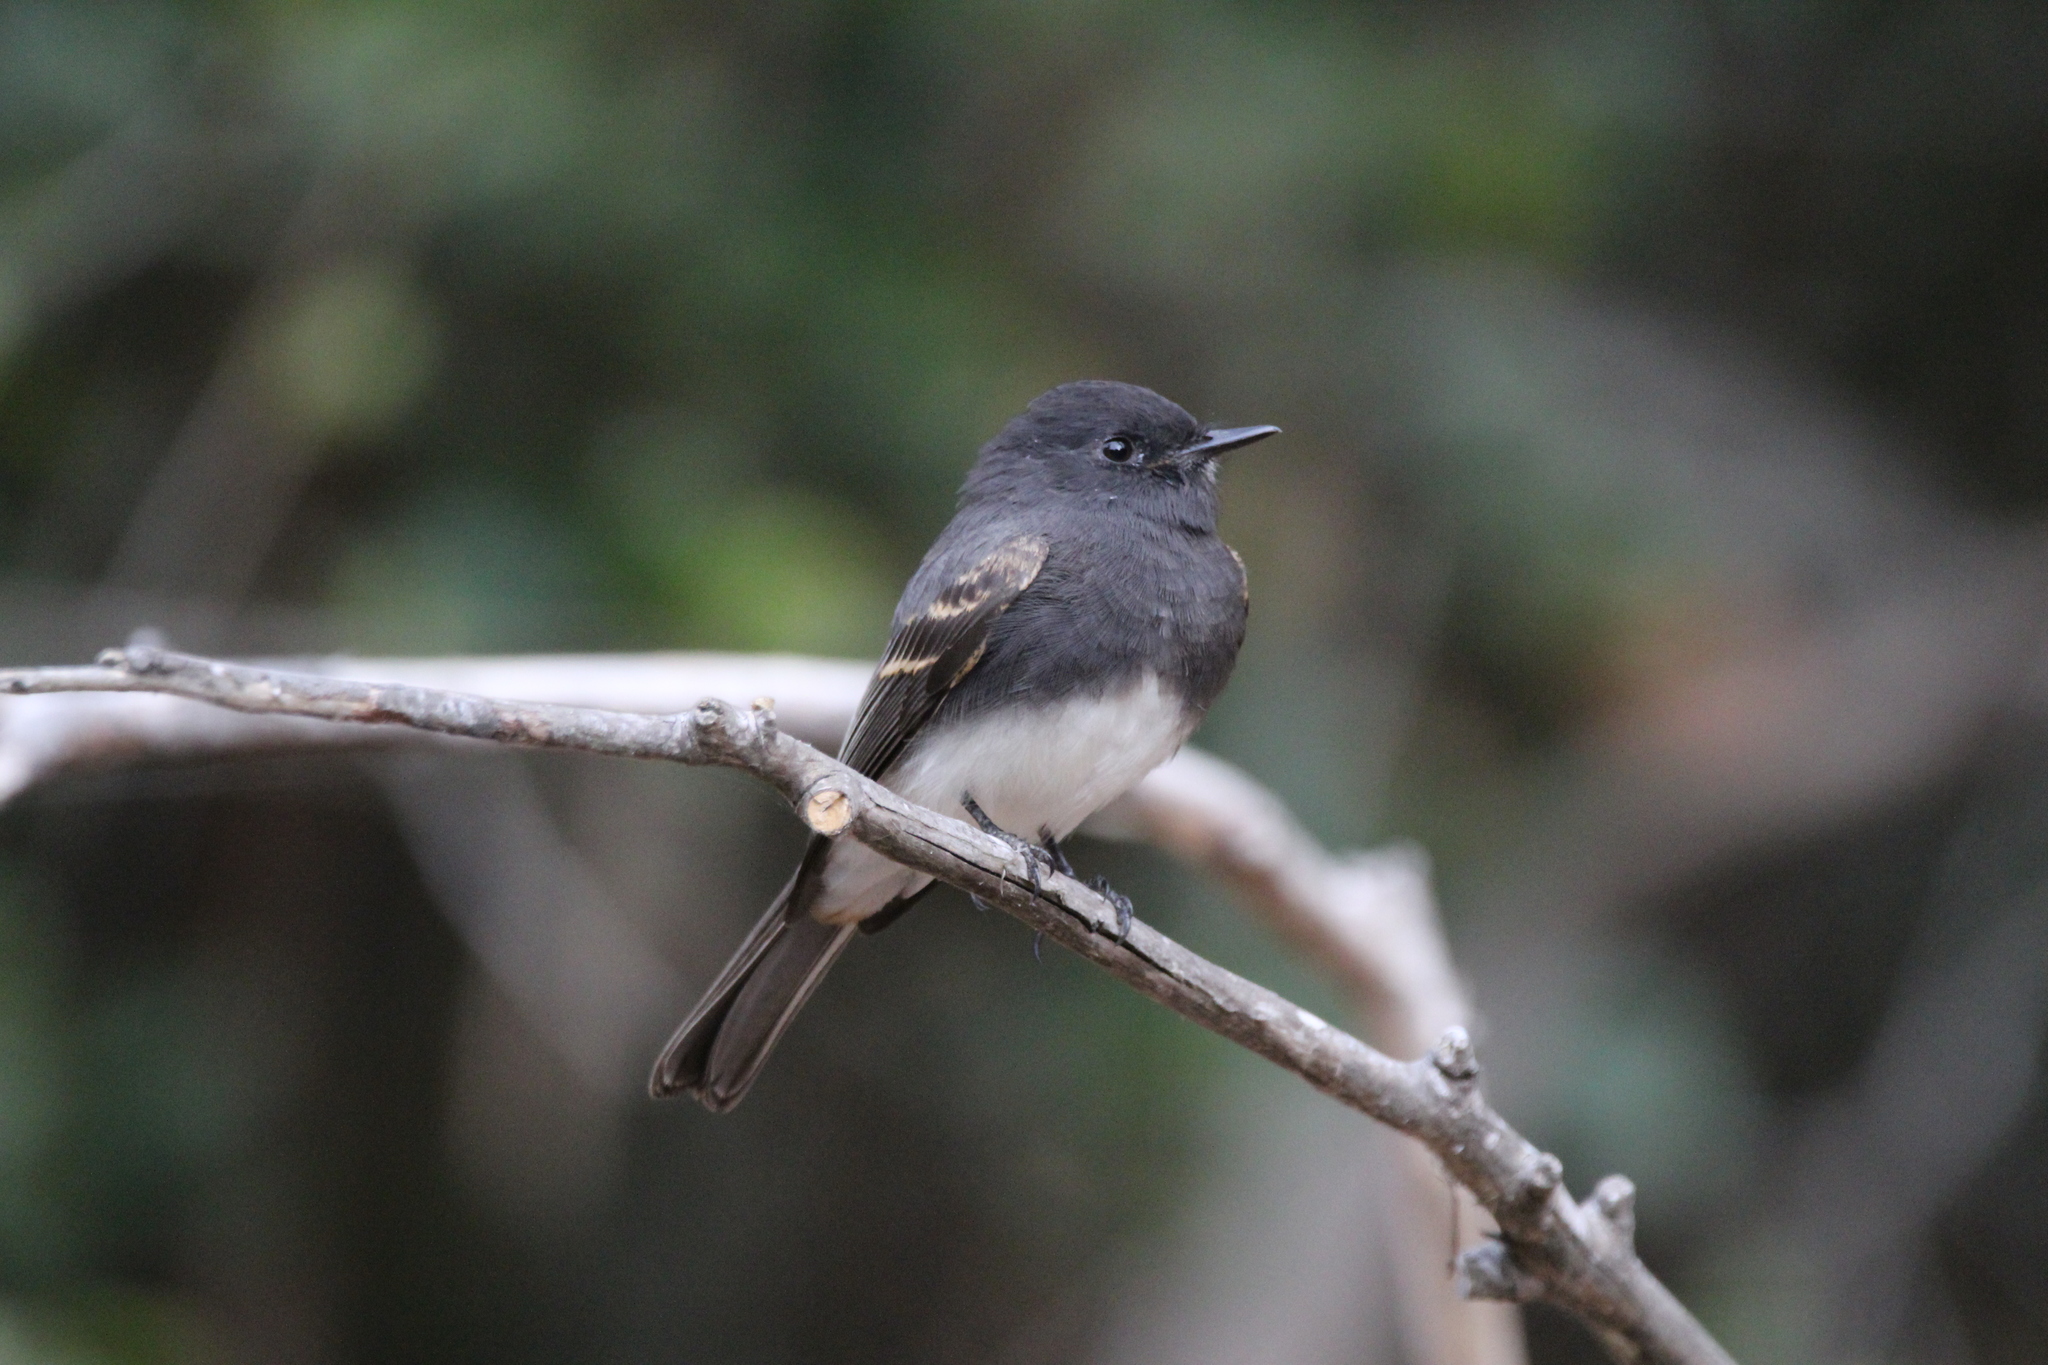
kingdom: Animalia
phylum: Chordata
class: Aves
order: Passeriformes
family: Tyrannidae
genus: Sayornis
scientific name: Sayornis nigricans
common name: Black phoebe
